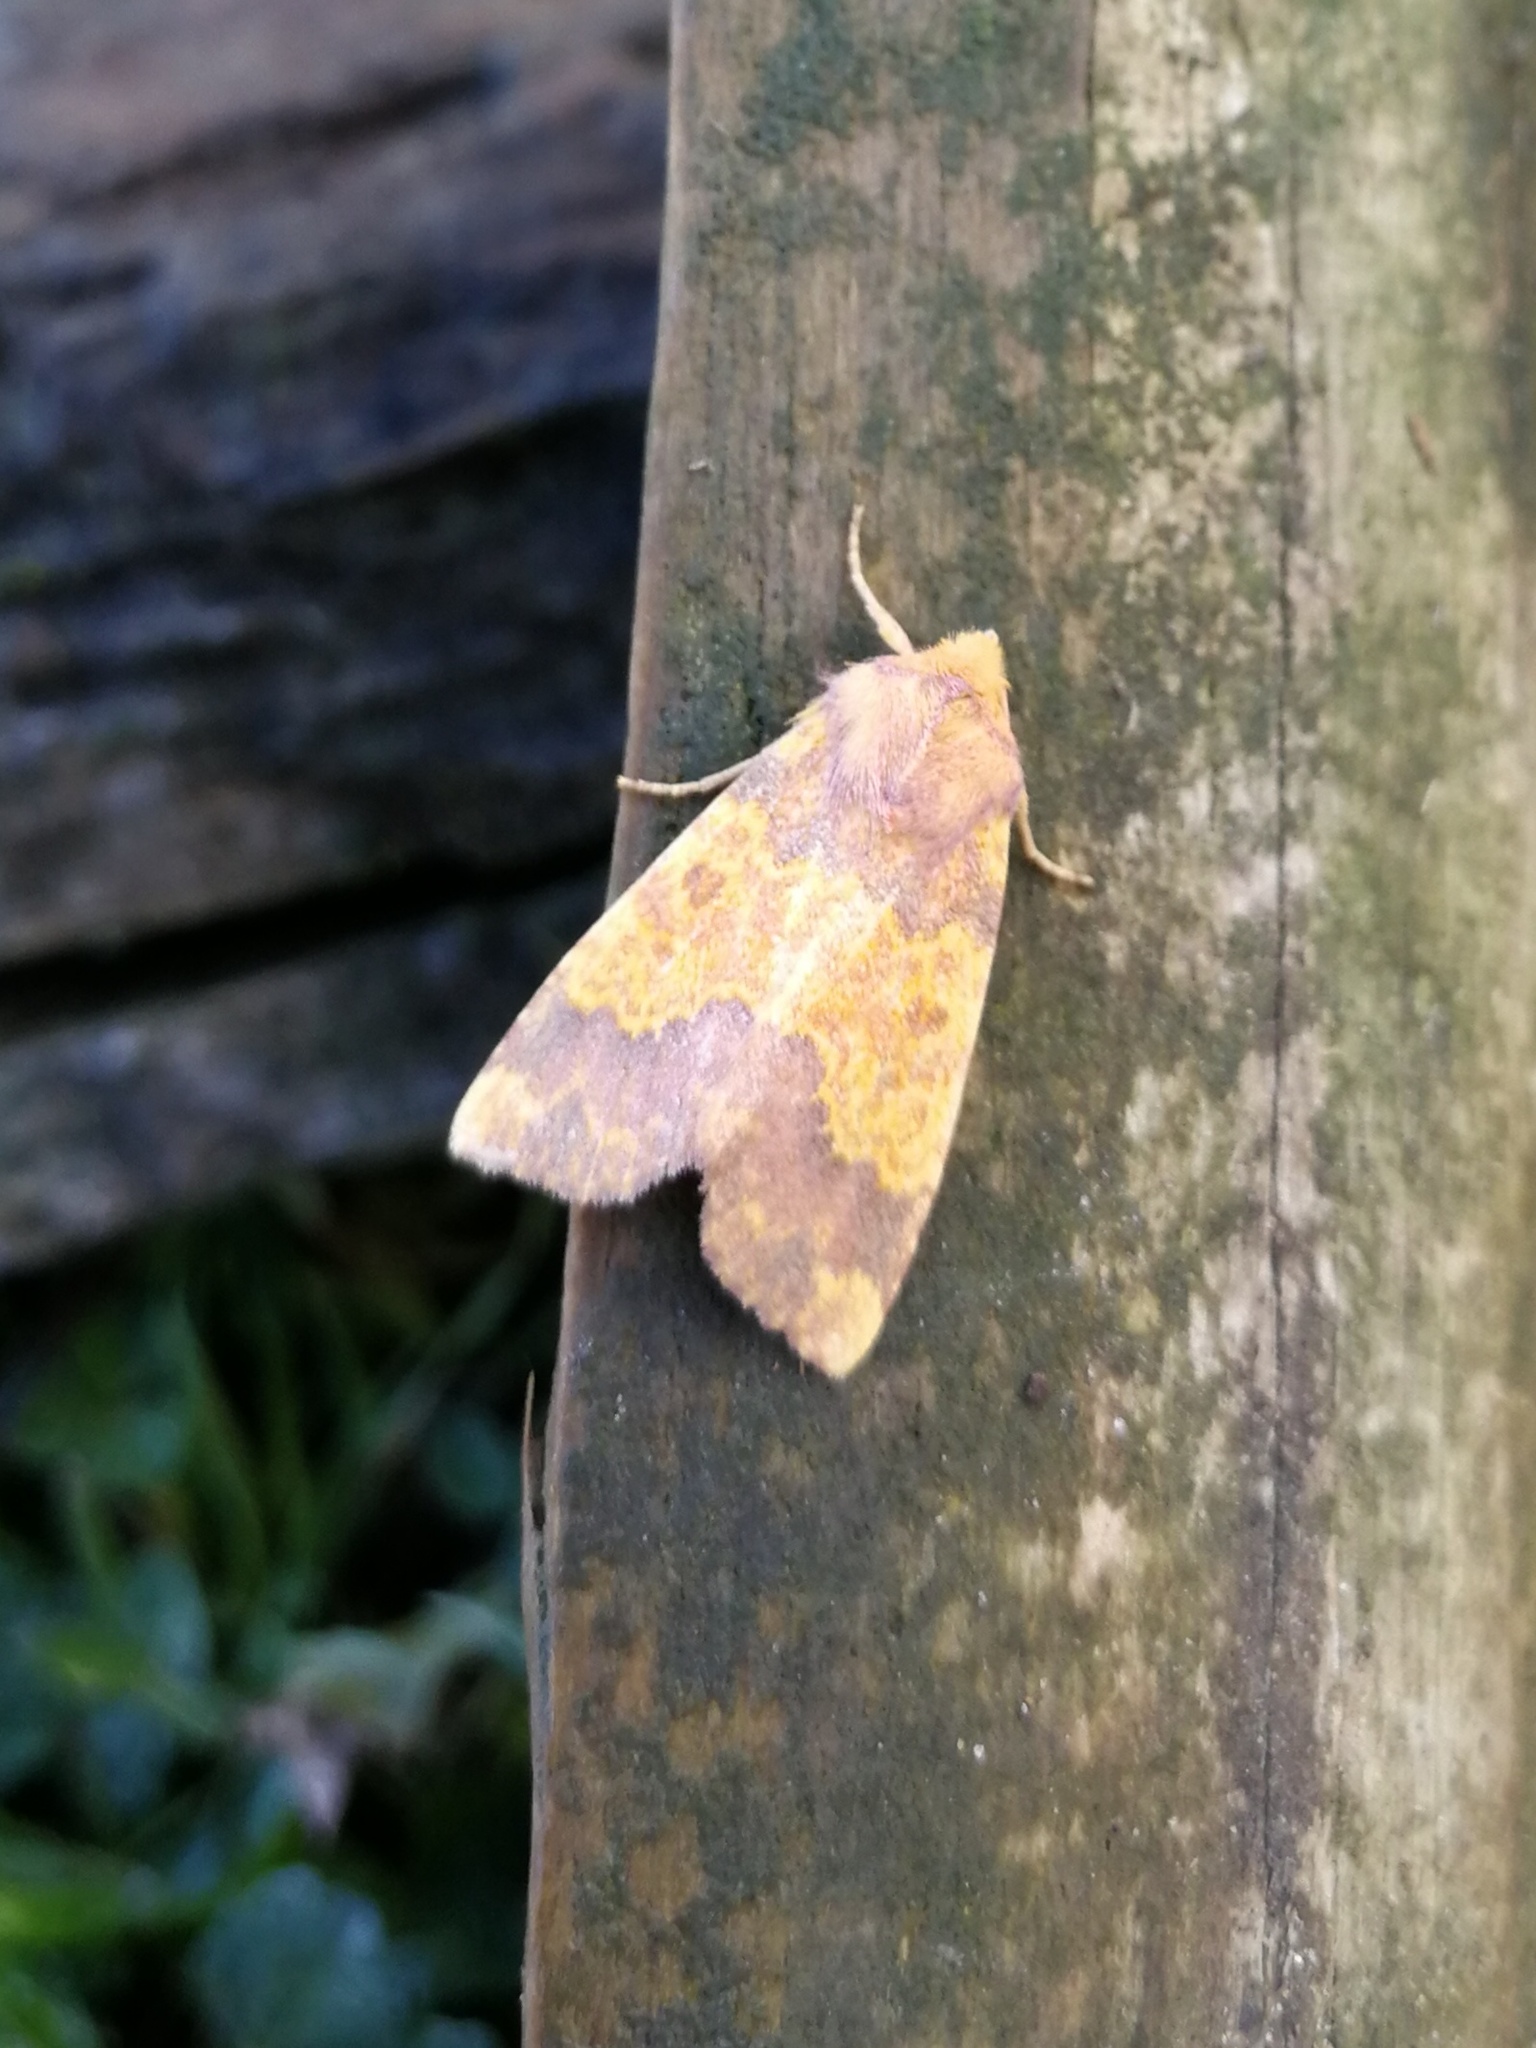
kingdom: Animalia
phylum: Arthropoda
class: Insecta
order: Lepidoptera
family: Noctuidae
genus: Tiliacea
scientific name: Tiliacea aurago
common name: Barred sallow
